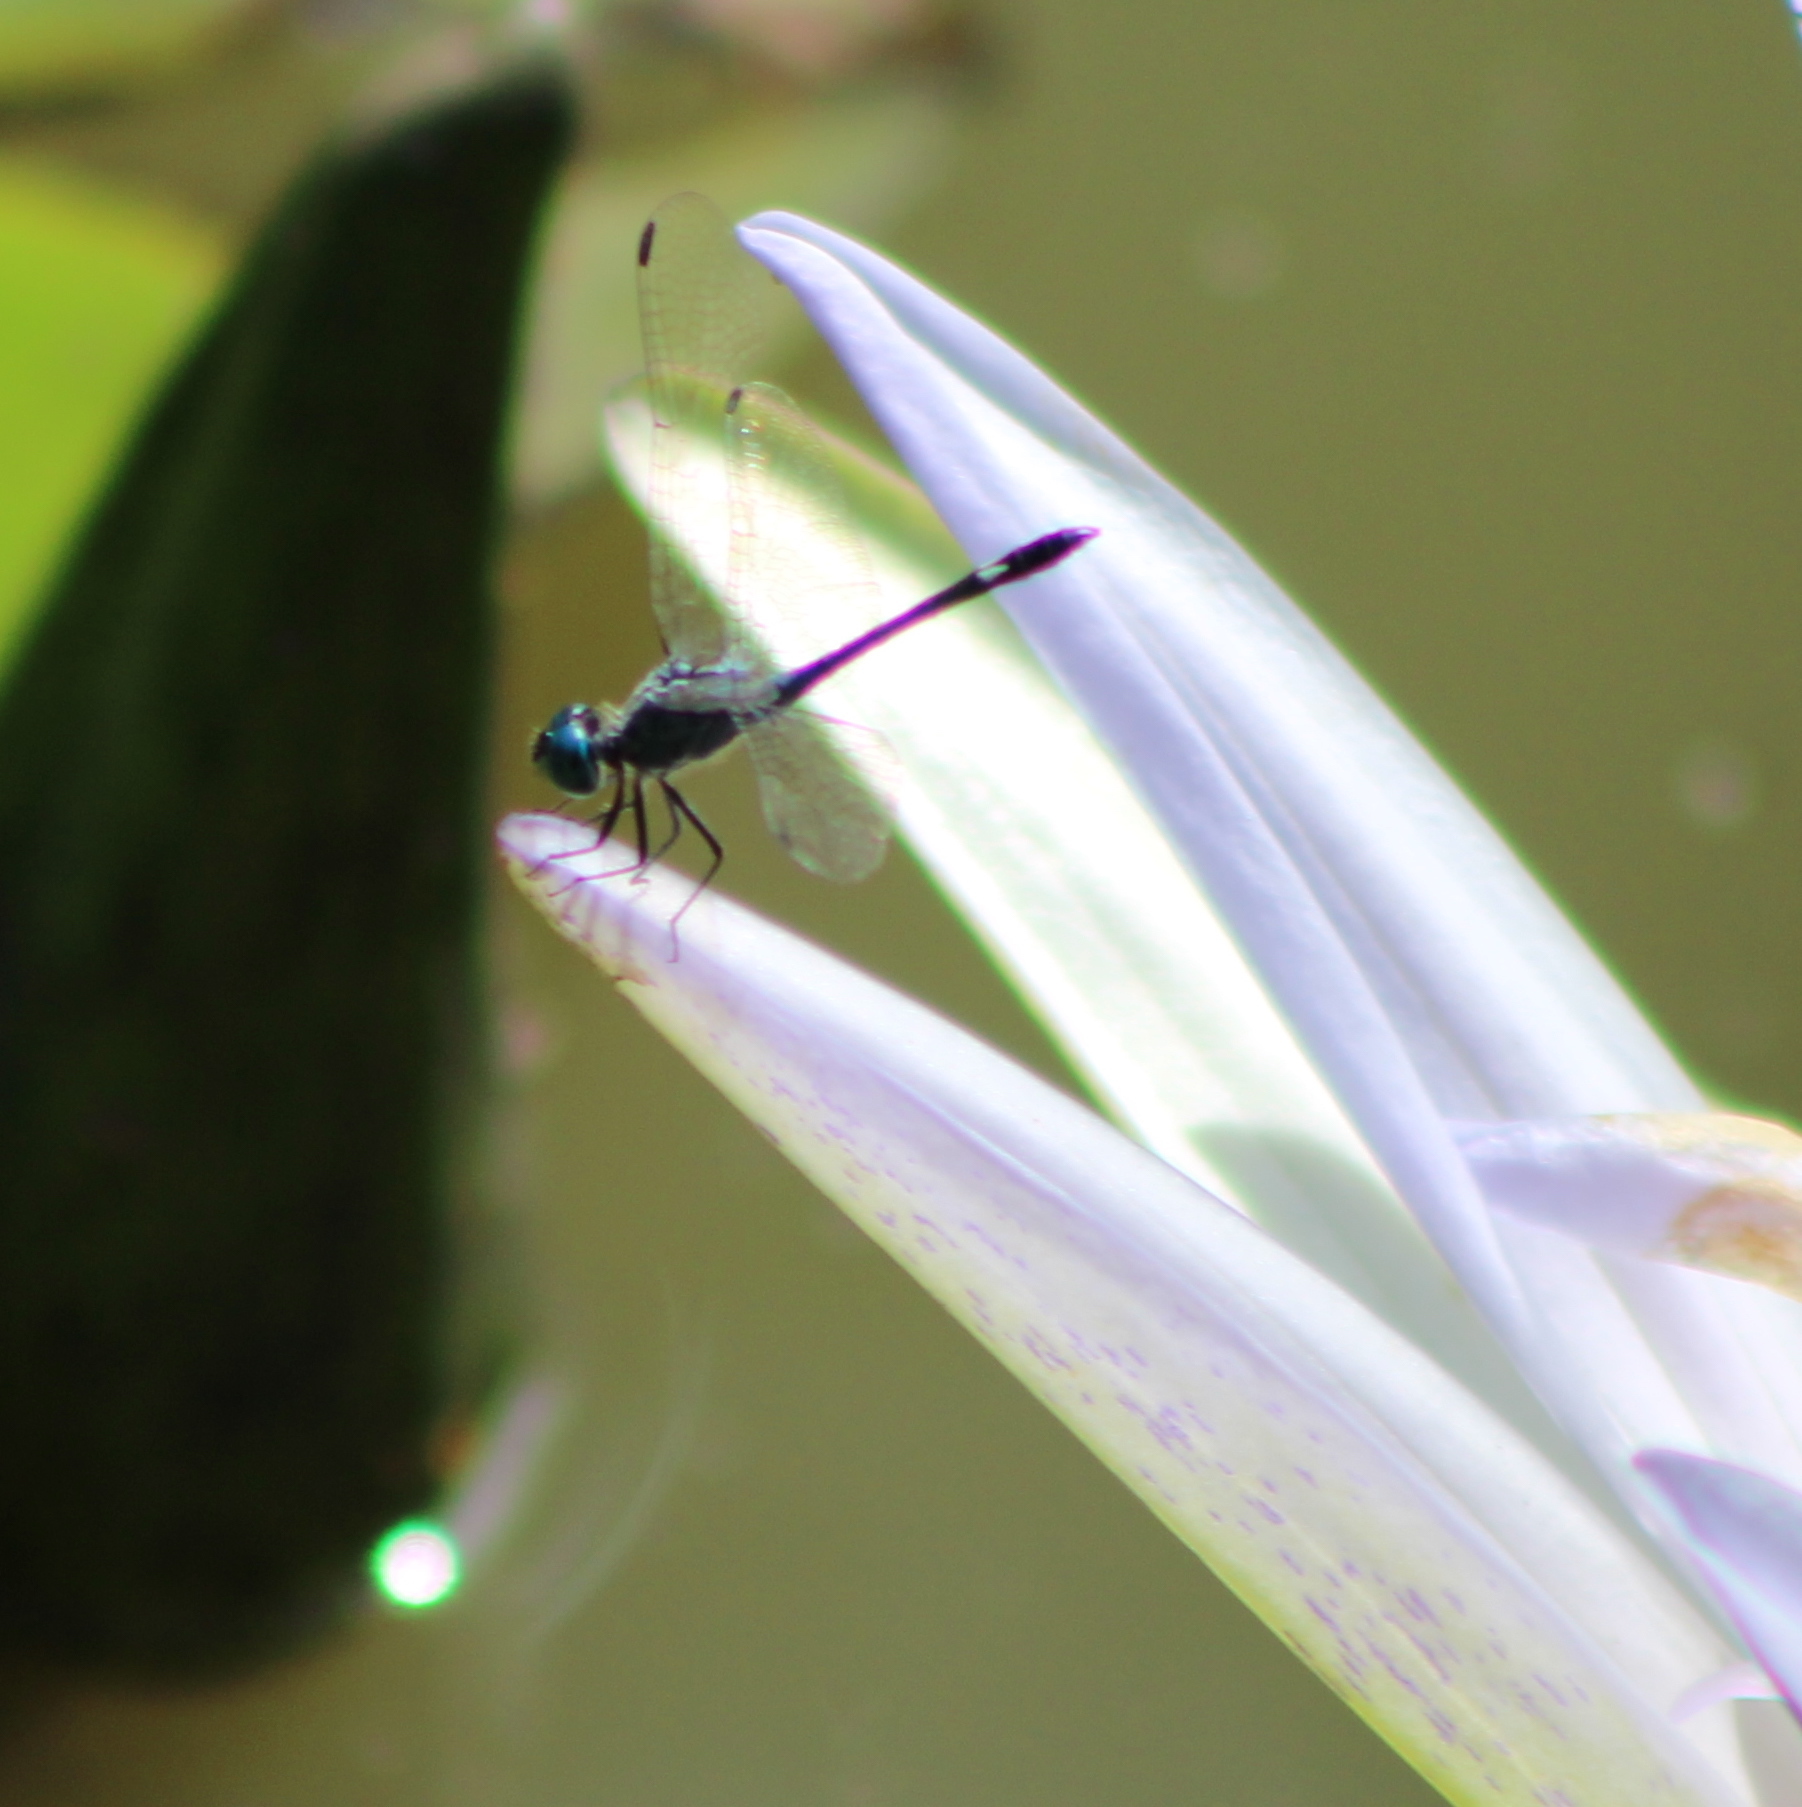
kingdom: Animalia
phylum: Arthropoda
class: Insecta
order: Odonata
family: Libellulidae
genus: Micrathyria
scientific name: Micrathyria aequalis
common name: Spot-tailed dasher
